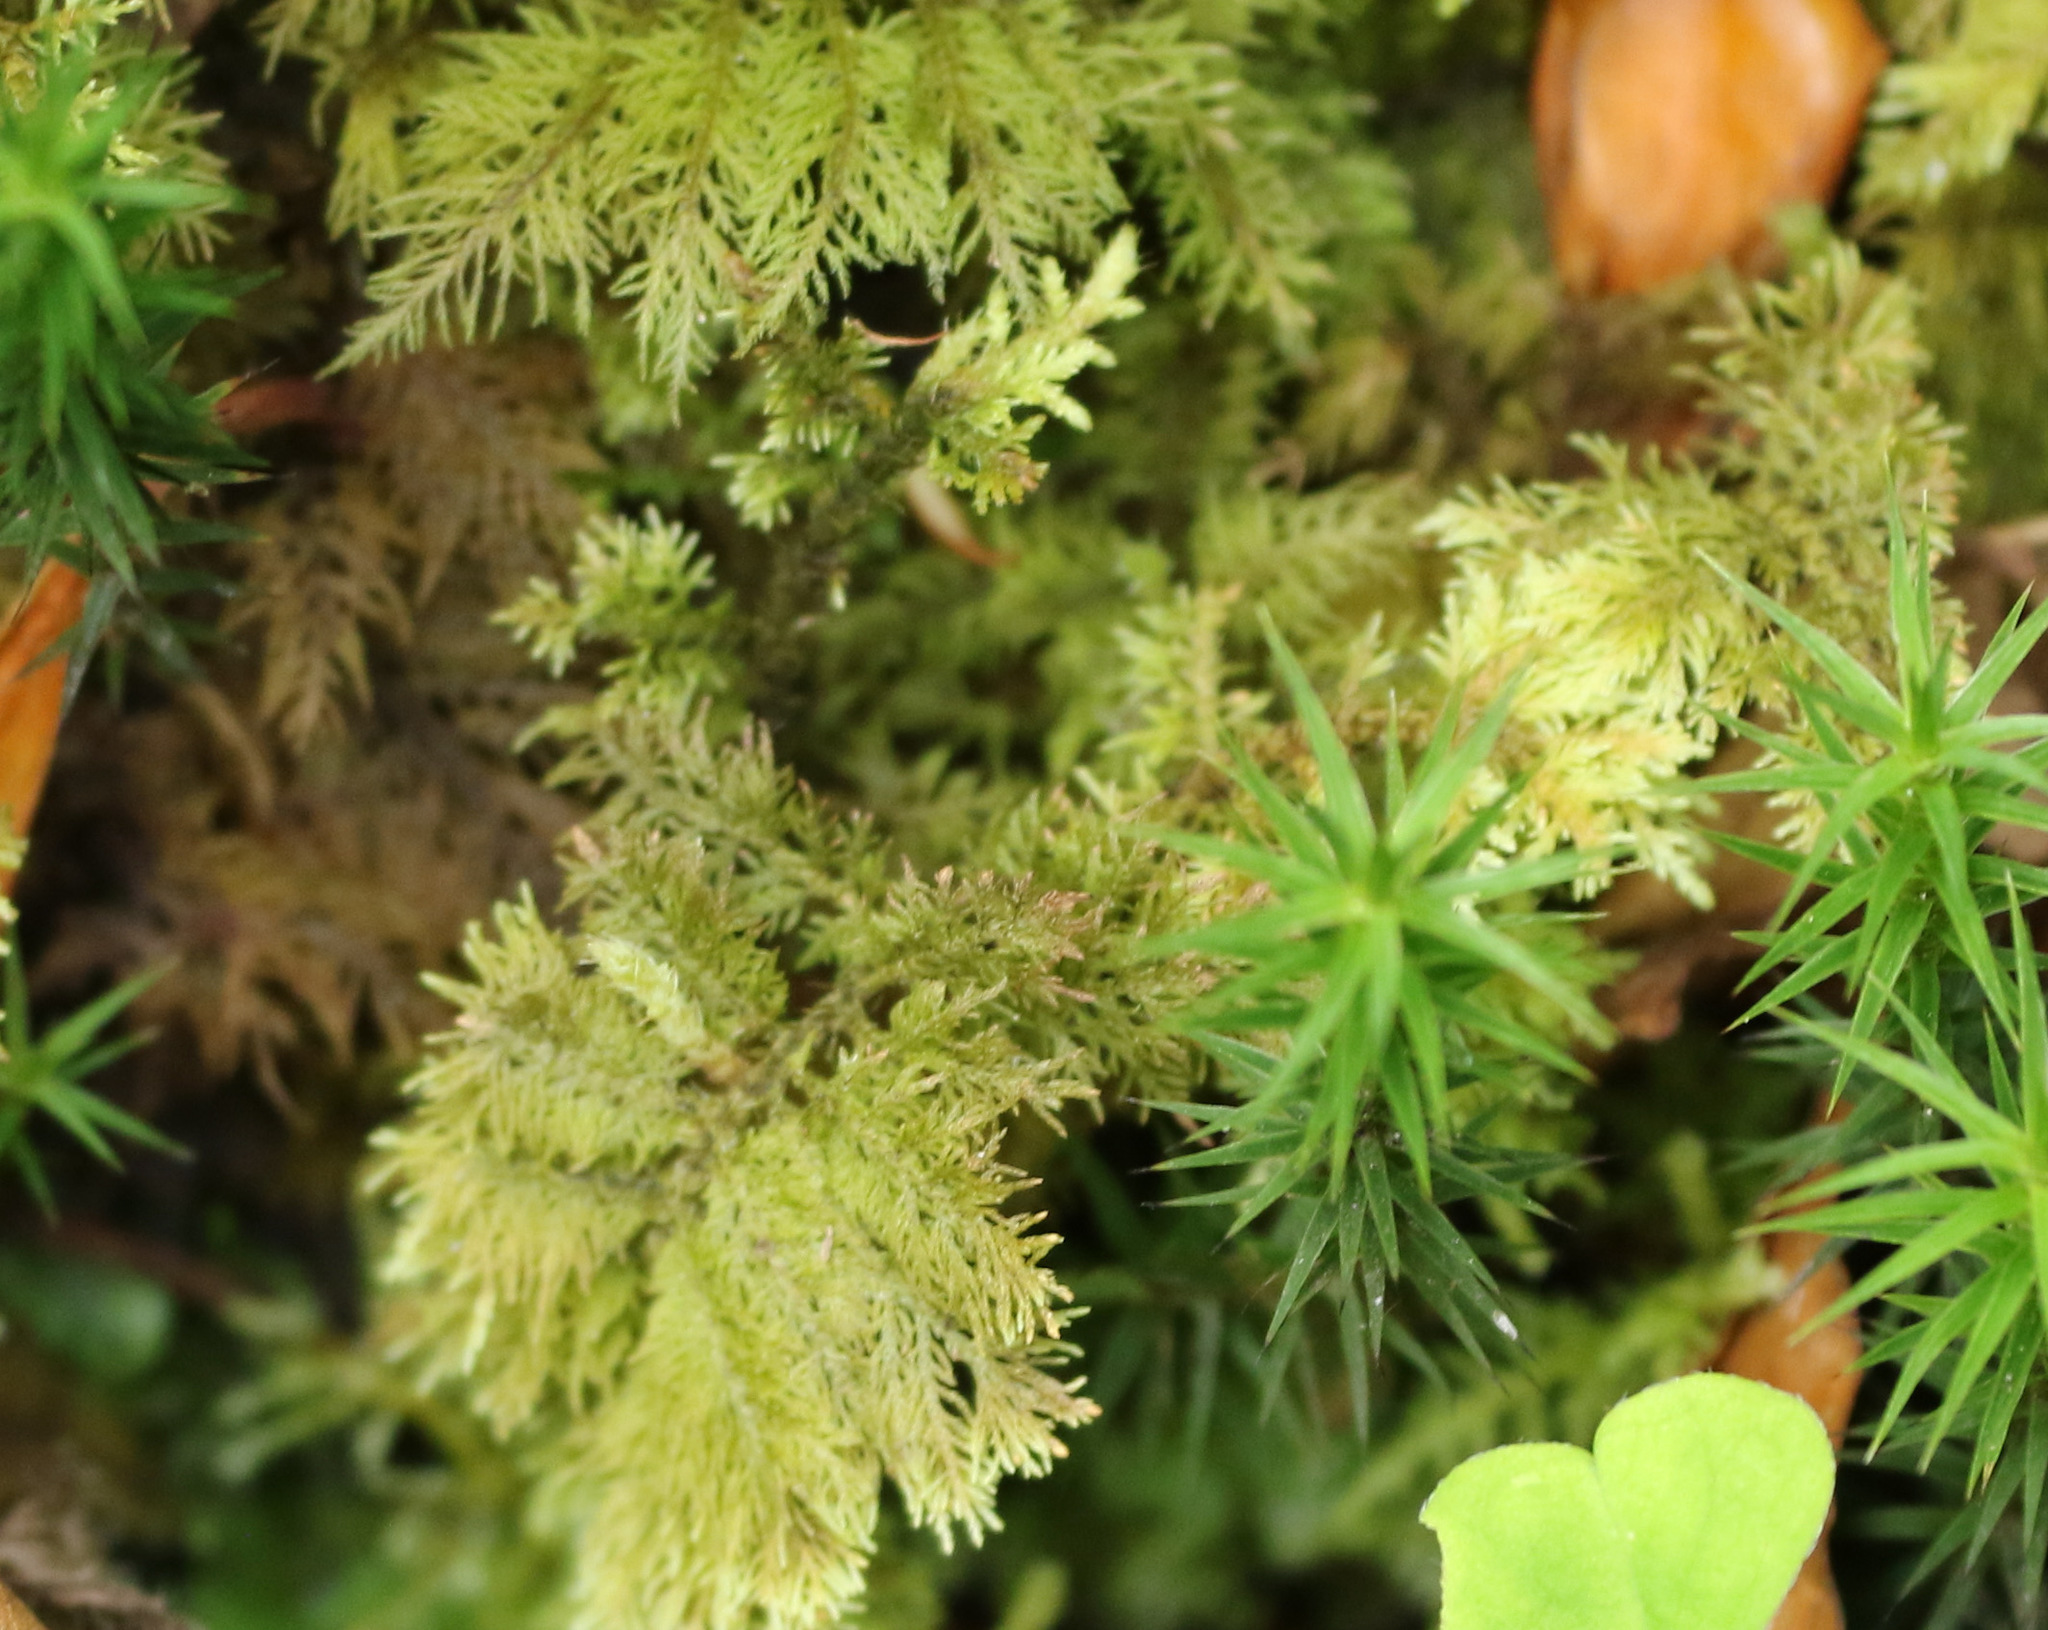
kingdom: Plantae
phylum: Bryophyta
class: Bryopsida
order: Hypnales
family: Thuidiaceae
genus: Thuidium
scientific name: Thuidium tamariscinum
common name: Common tamarisk-moss
